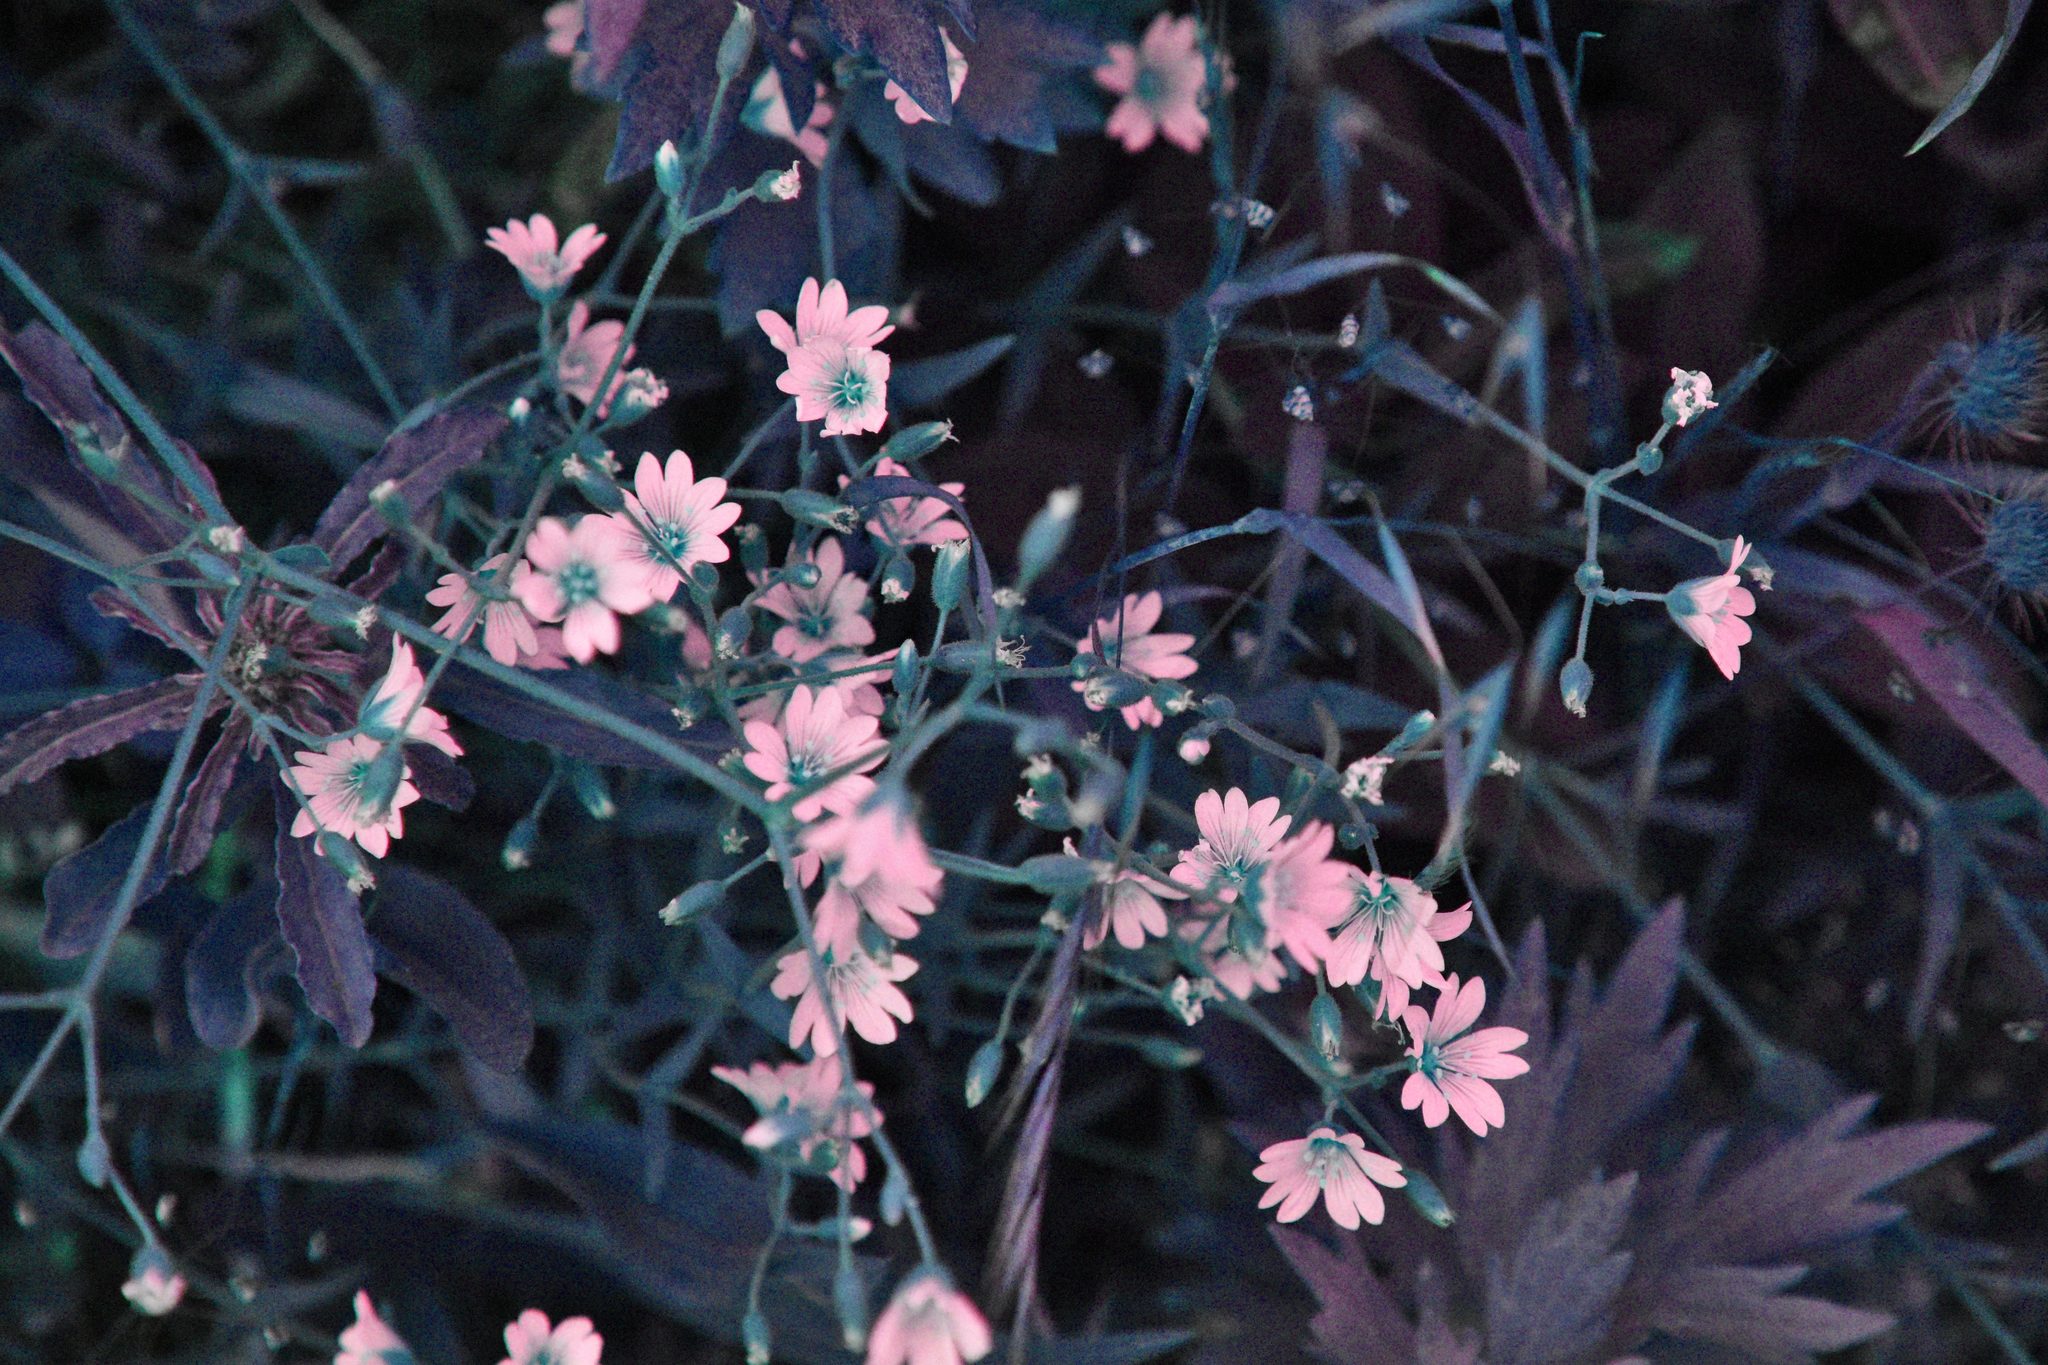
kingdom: Plantae
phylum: Tracheophyta
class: Magnoliopsida
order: Caryophyllales
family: Caryophyllaceae
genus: Cerastium
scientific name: Cerastium arvense
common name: Field mouse-ear
